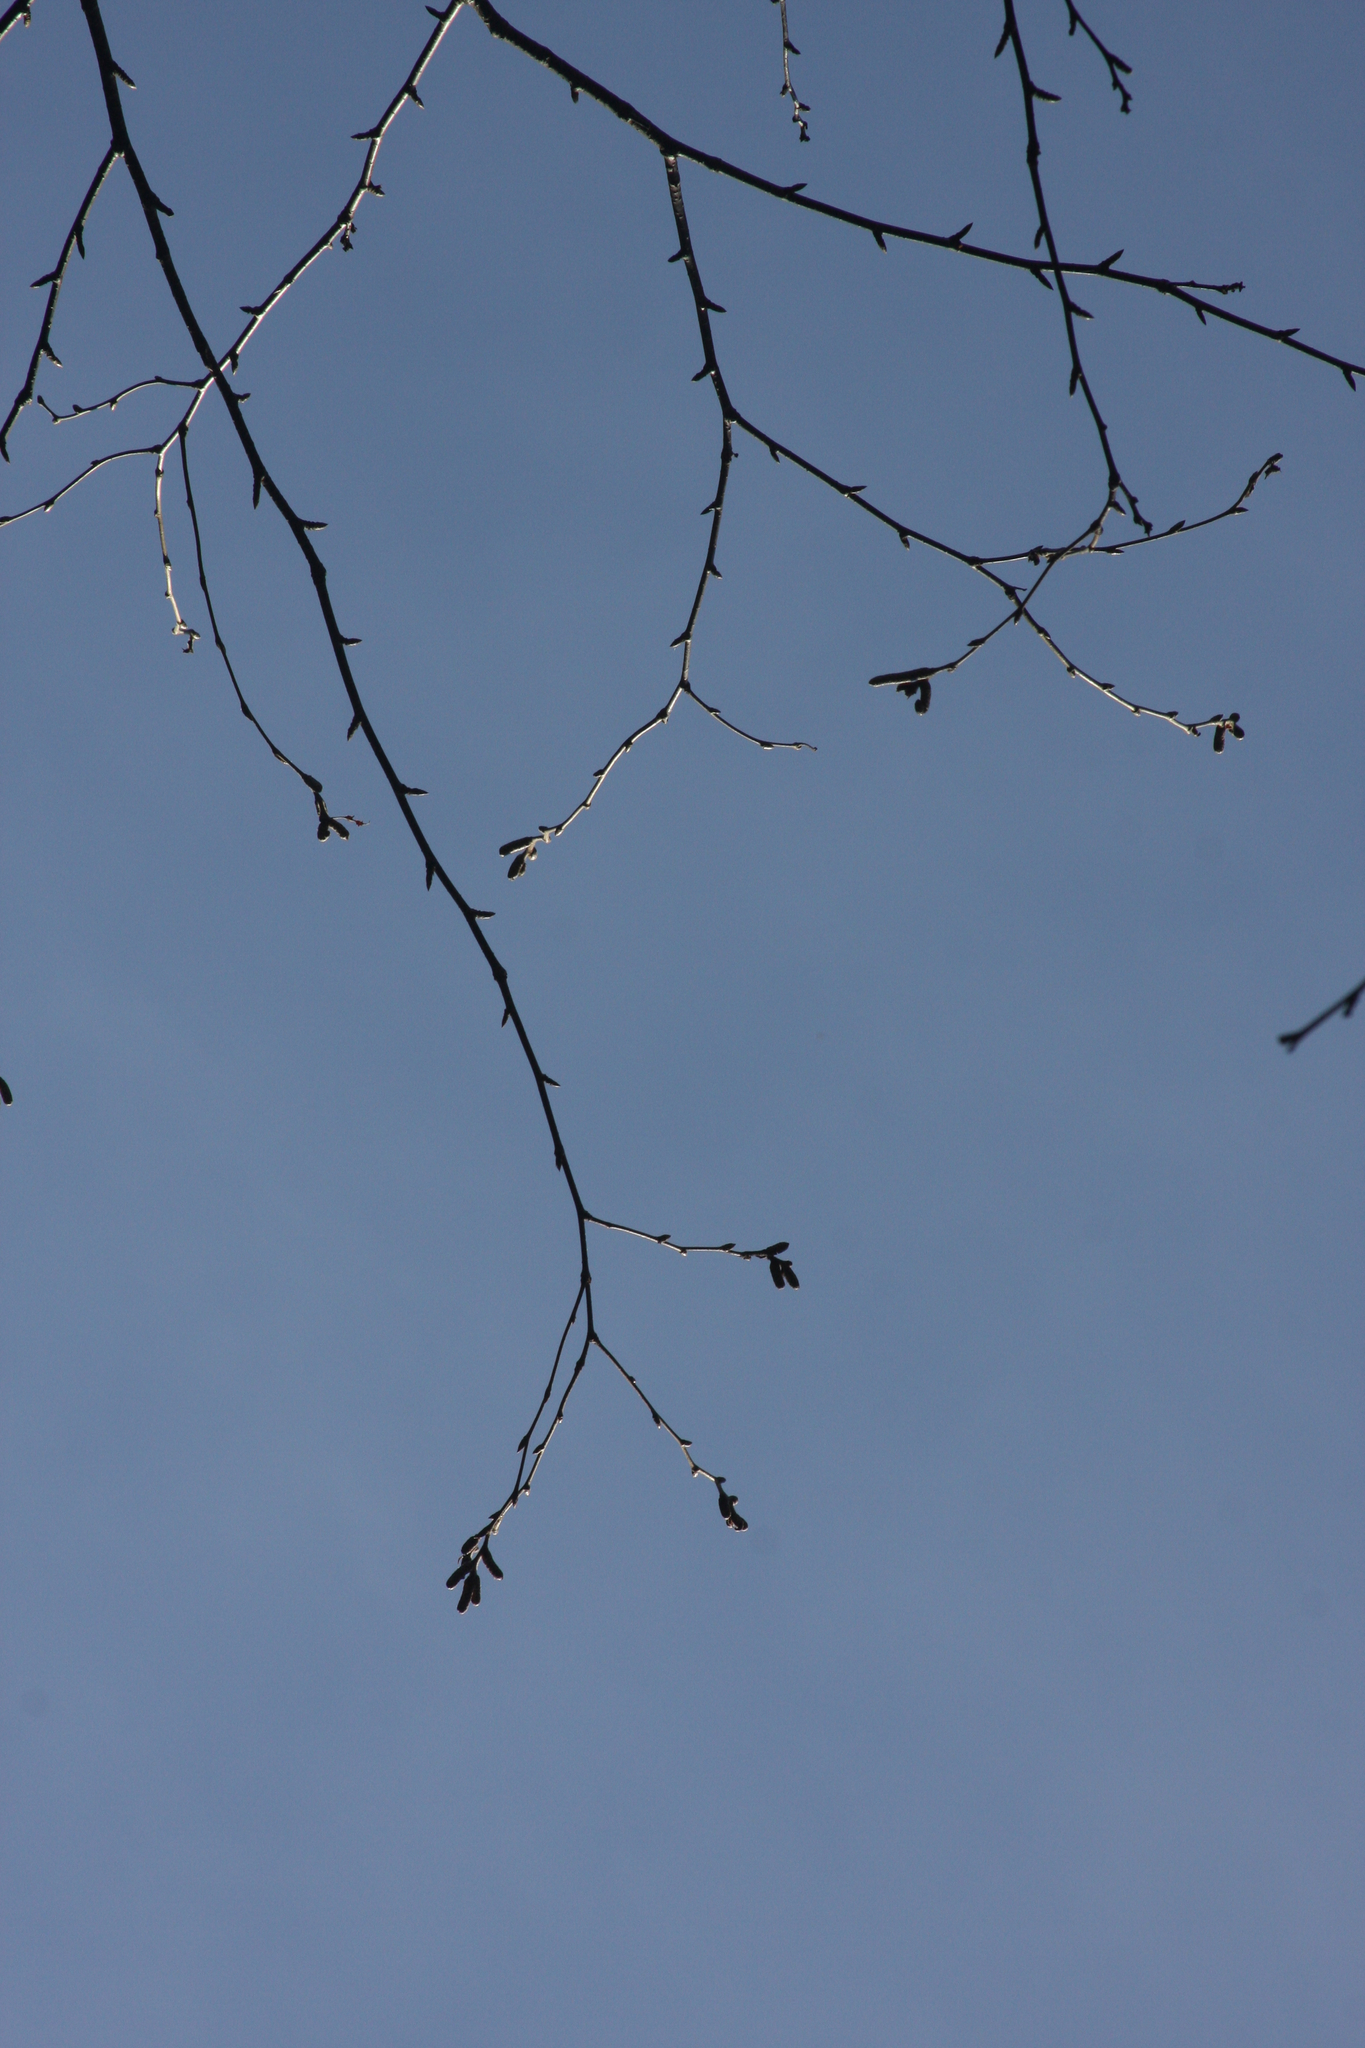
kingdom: Plantae
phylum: Tracheophyta
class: Magnoliopsida
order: Fagales
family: Betulaceae
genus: Betula
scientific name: Betula alleghaniensis
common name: Yellow birch
